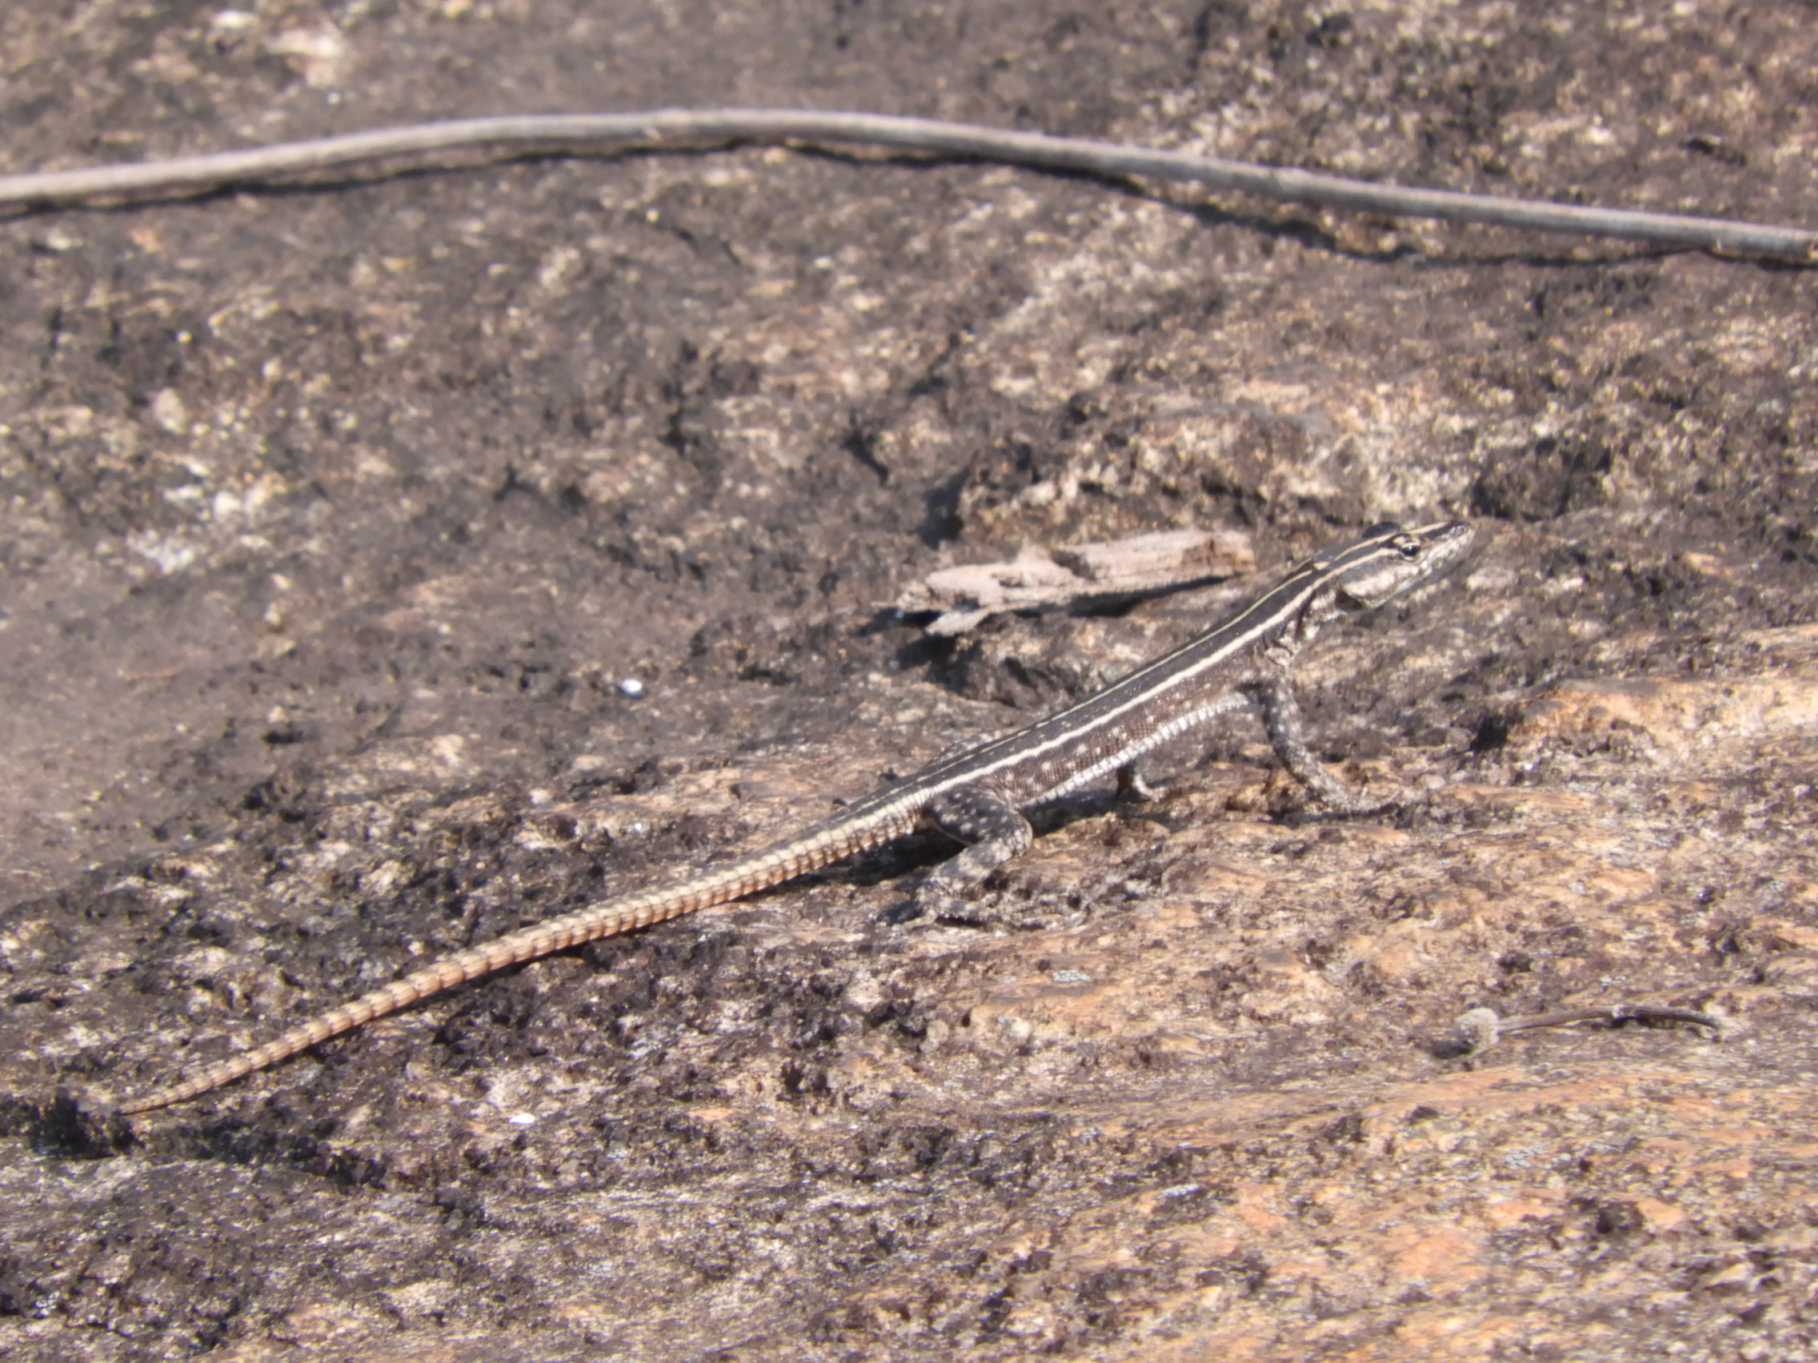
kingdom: Animalia
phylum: Chordata
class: Squamata
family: Cordylidae
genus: Platysaurus
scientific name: Platysaurus intermedius
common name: Common flat lizard
